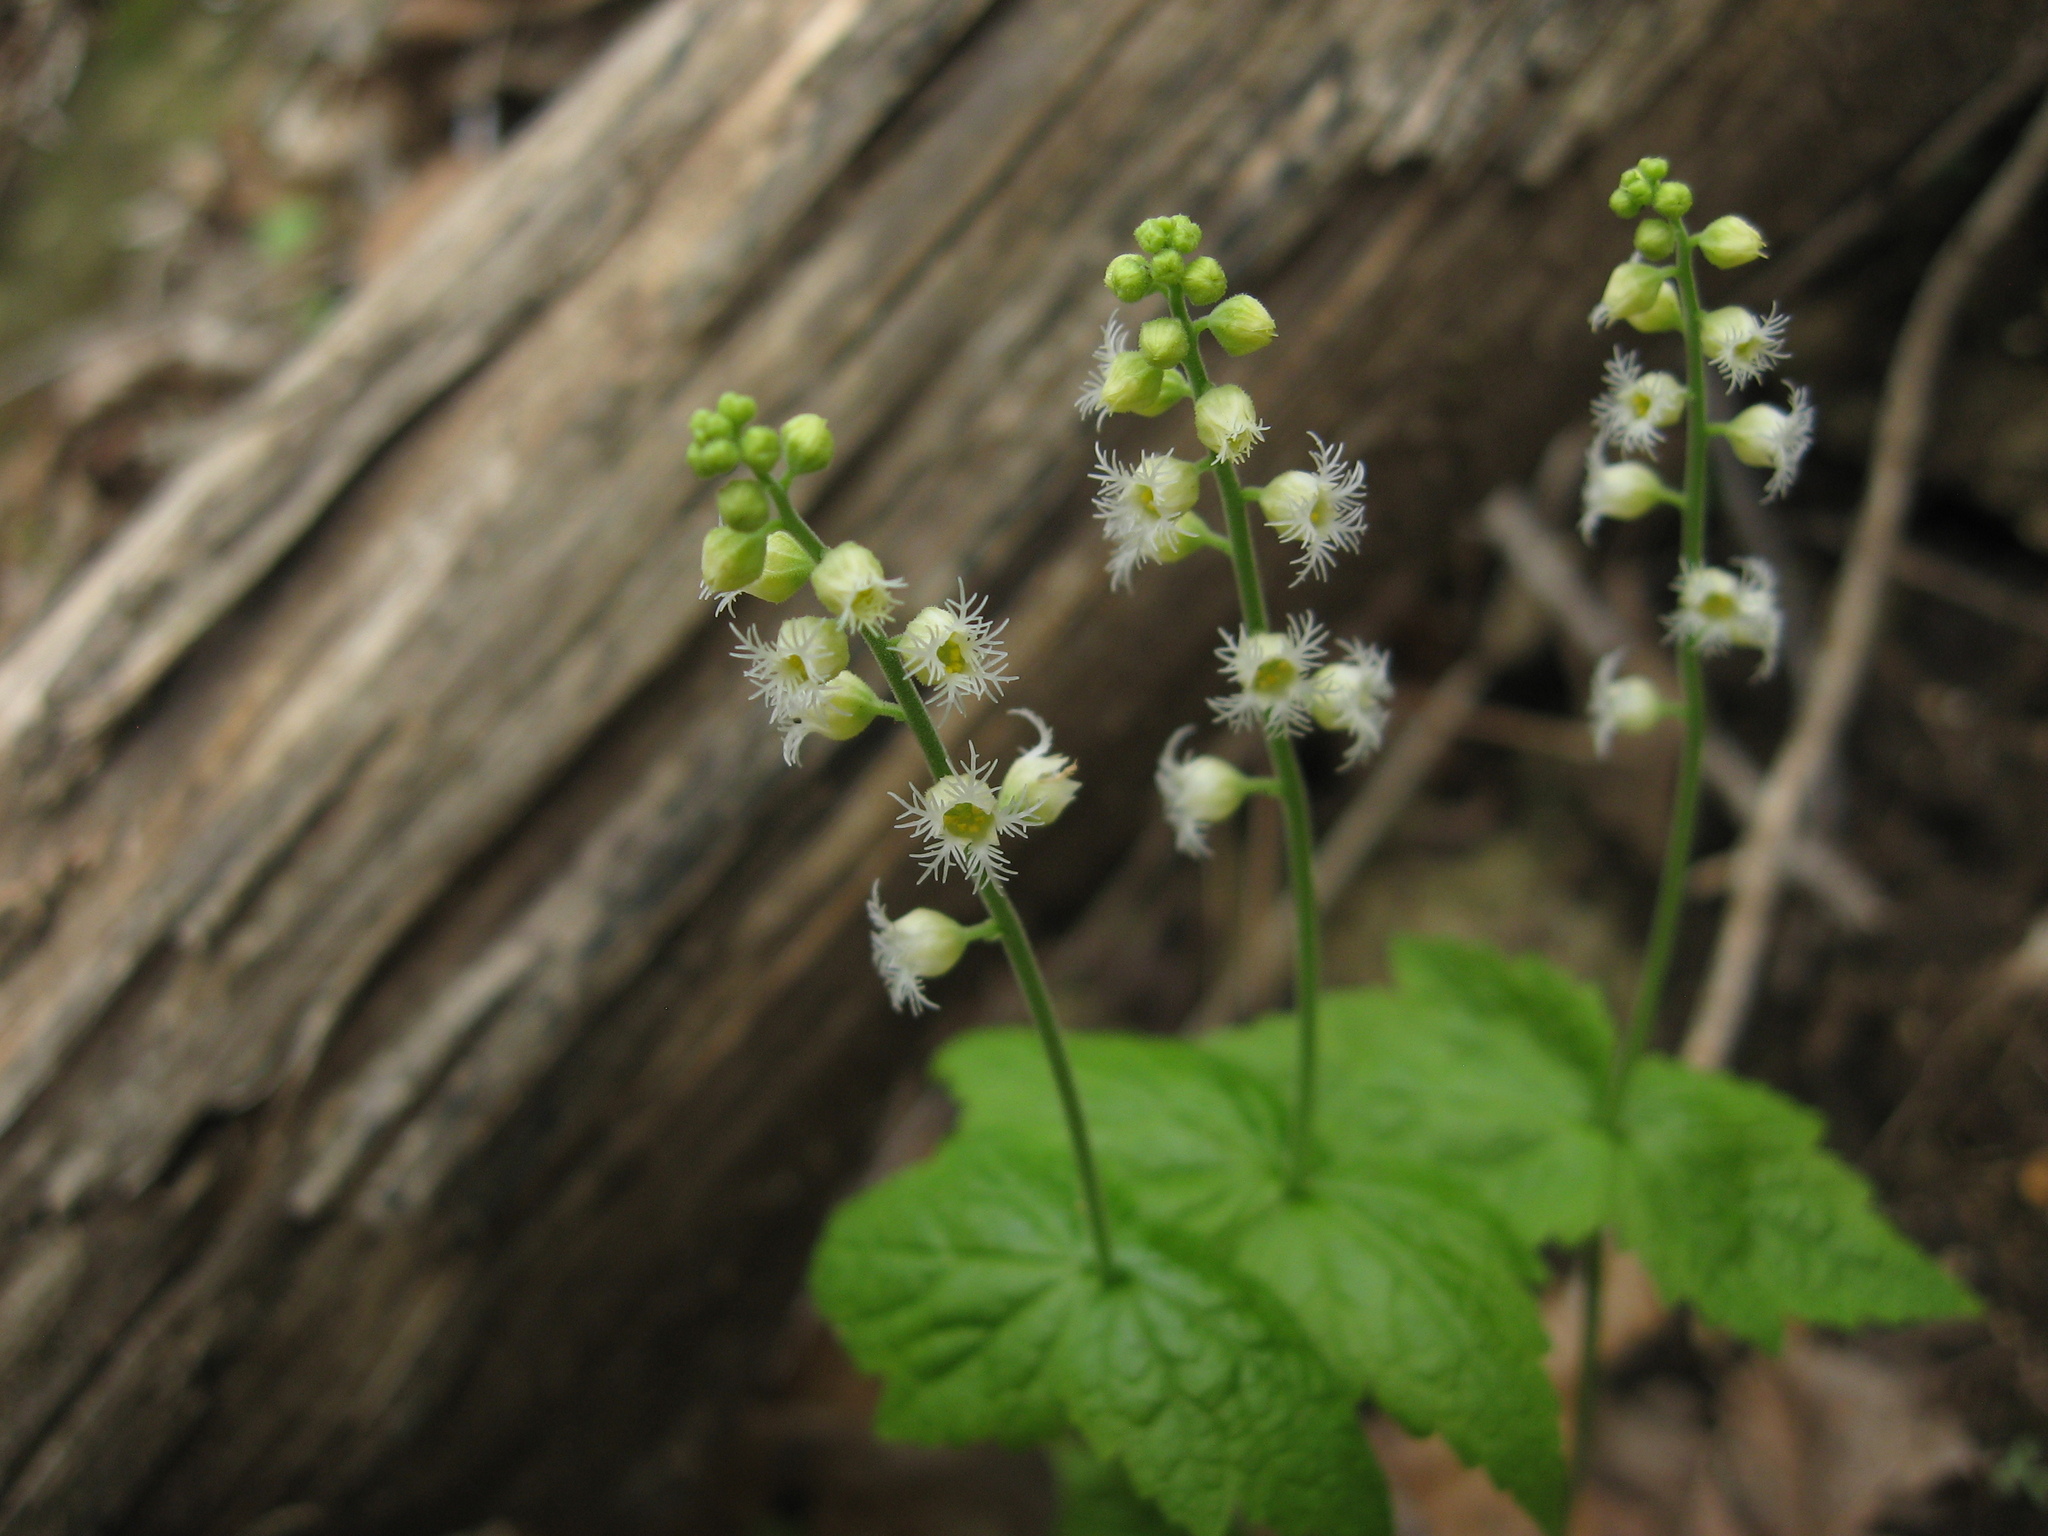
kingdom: Plantae
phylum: Tracheophyta
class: Magnoliopsida
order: Saxifragales
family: Saxifragaceae
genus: Mitella
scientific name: Mitella diphylla
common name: Coolwort
